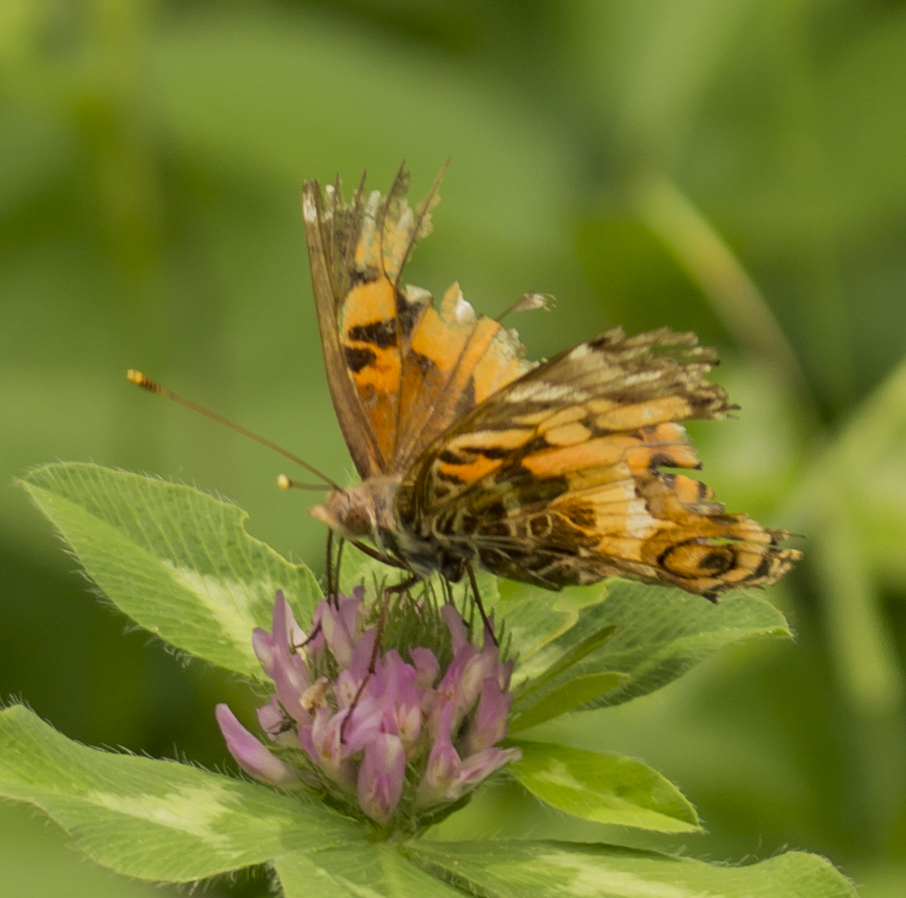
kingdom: Animalia
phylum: Arthropoda
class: Insecta
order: Lepidoptera
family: Nymphalidae
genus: Vanessa
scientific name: Vanessa virginiensis
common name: American lady
